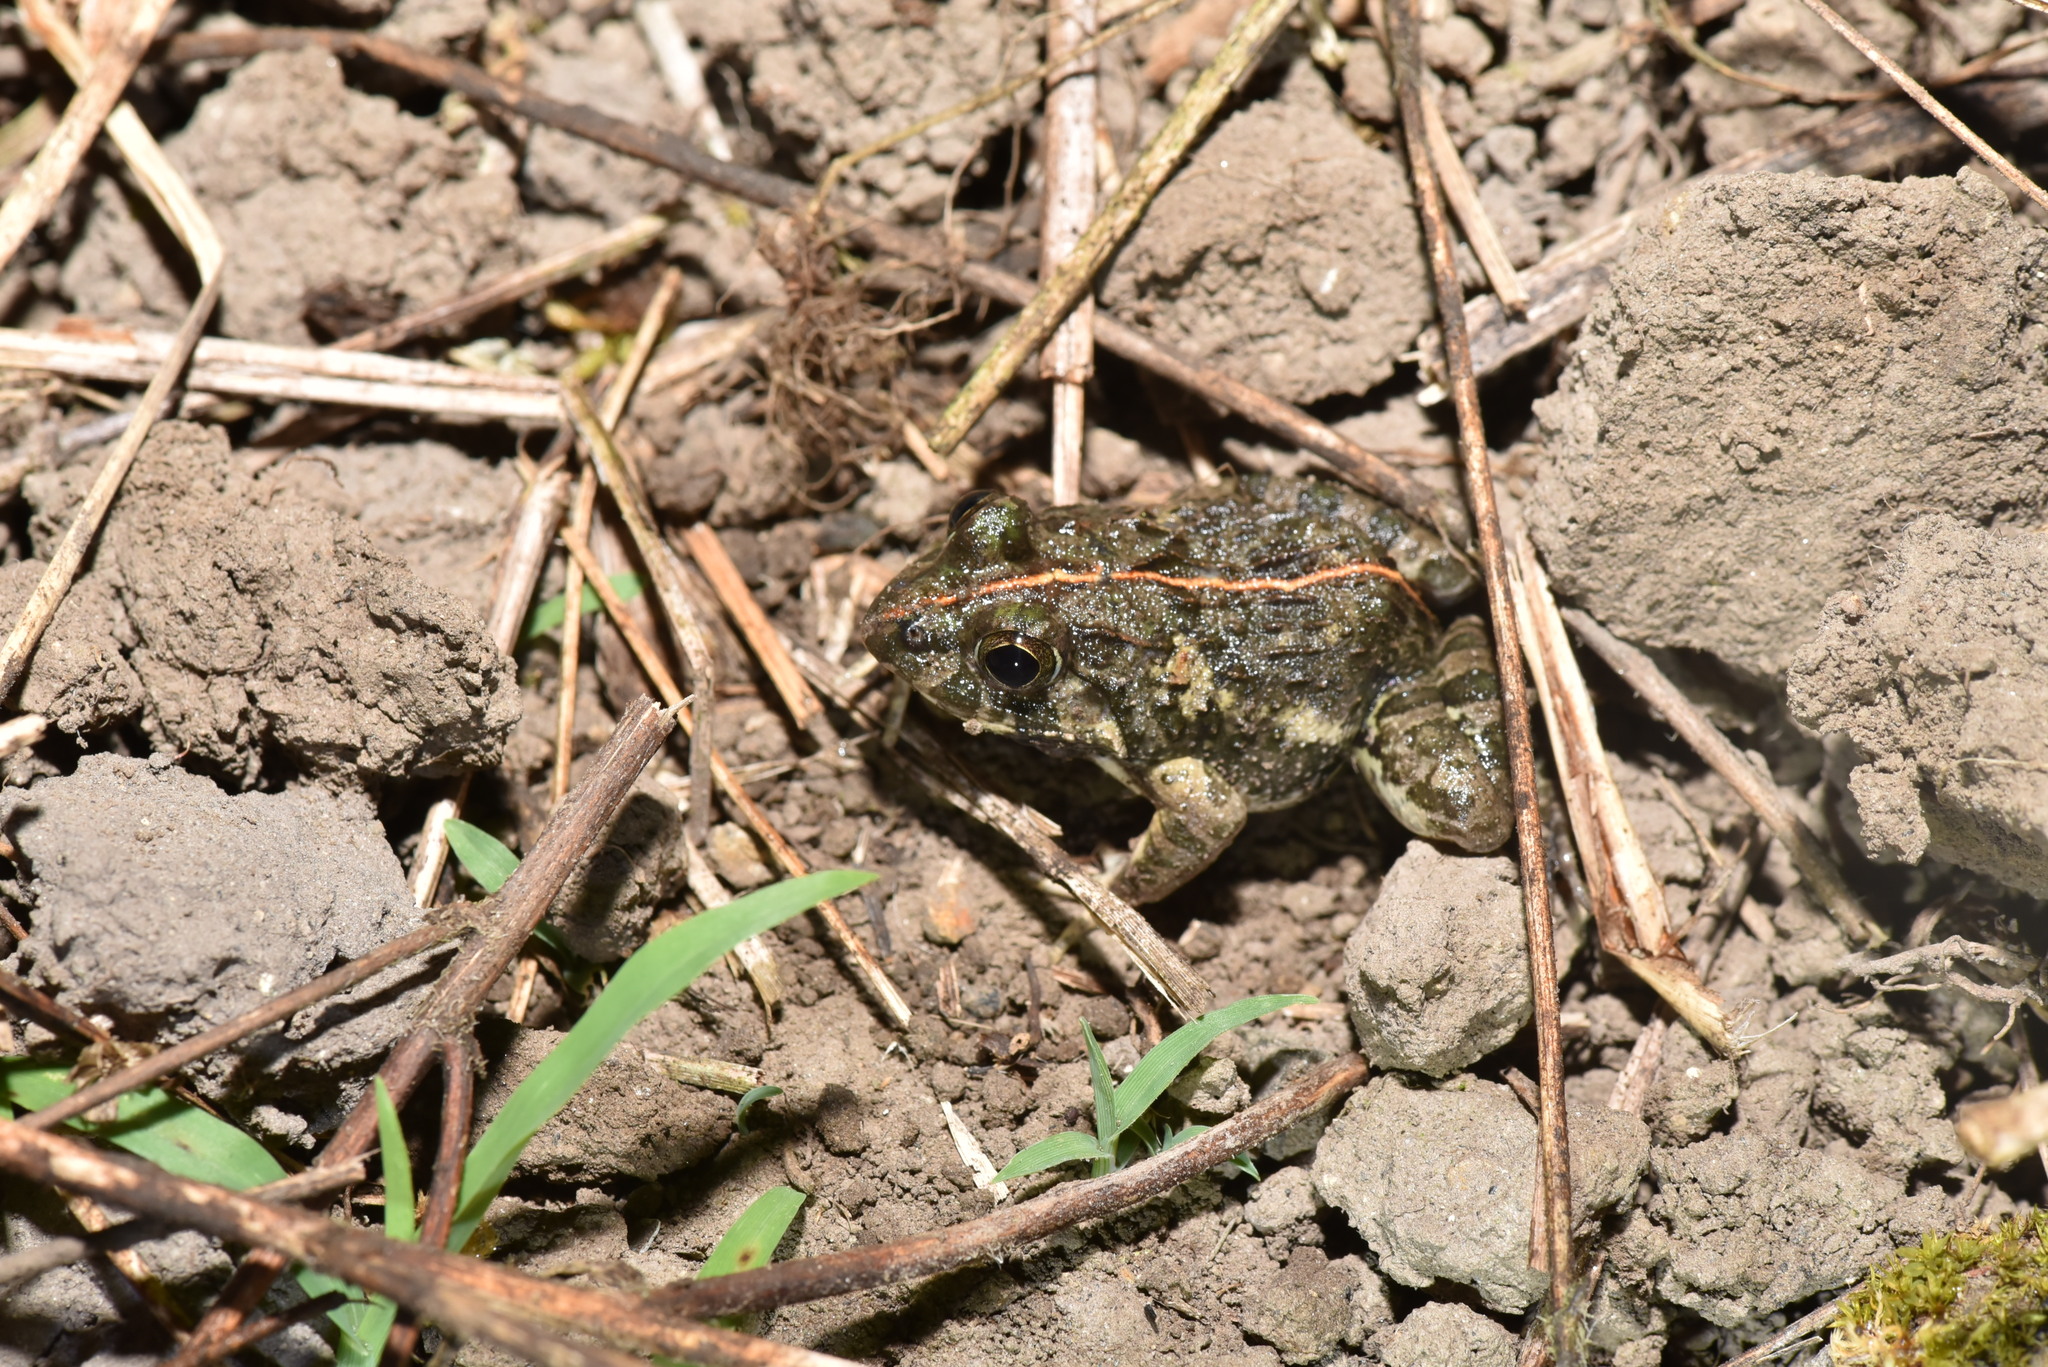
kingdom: Animalia
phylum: Chordata
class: Amphibia
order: Anura
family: Dicroglossidae
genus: Fejervarya
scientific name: Fejervarya limnocharis
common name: Asian grass frog/common pond frog/field frog/grass frog/indian rice frog
